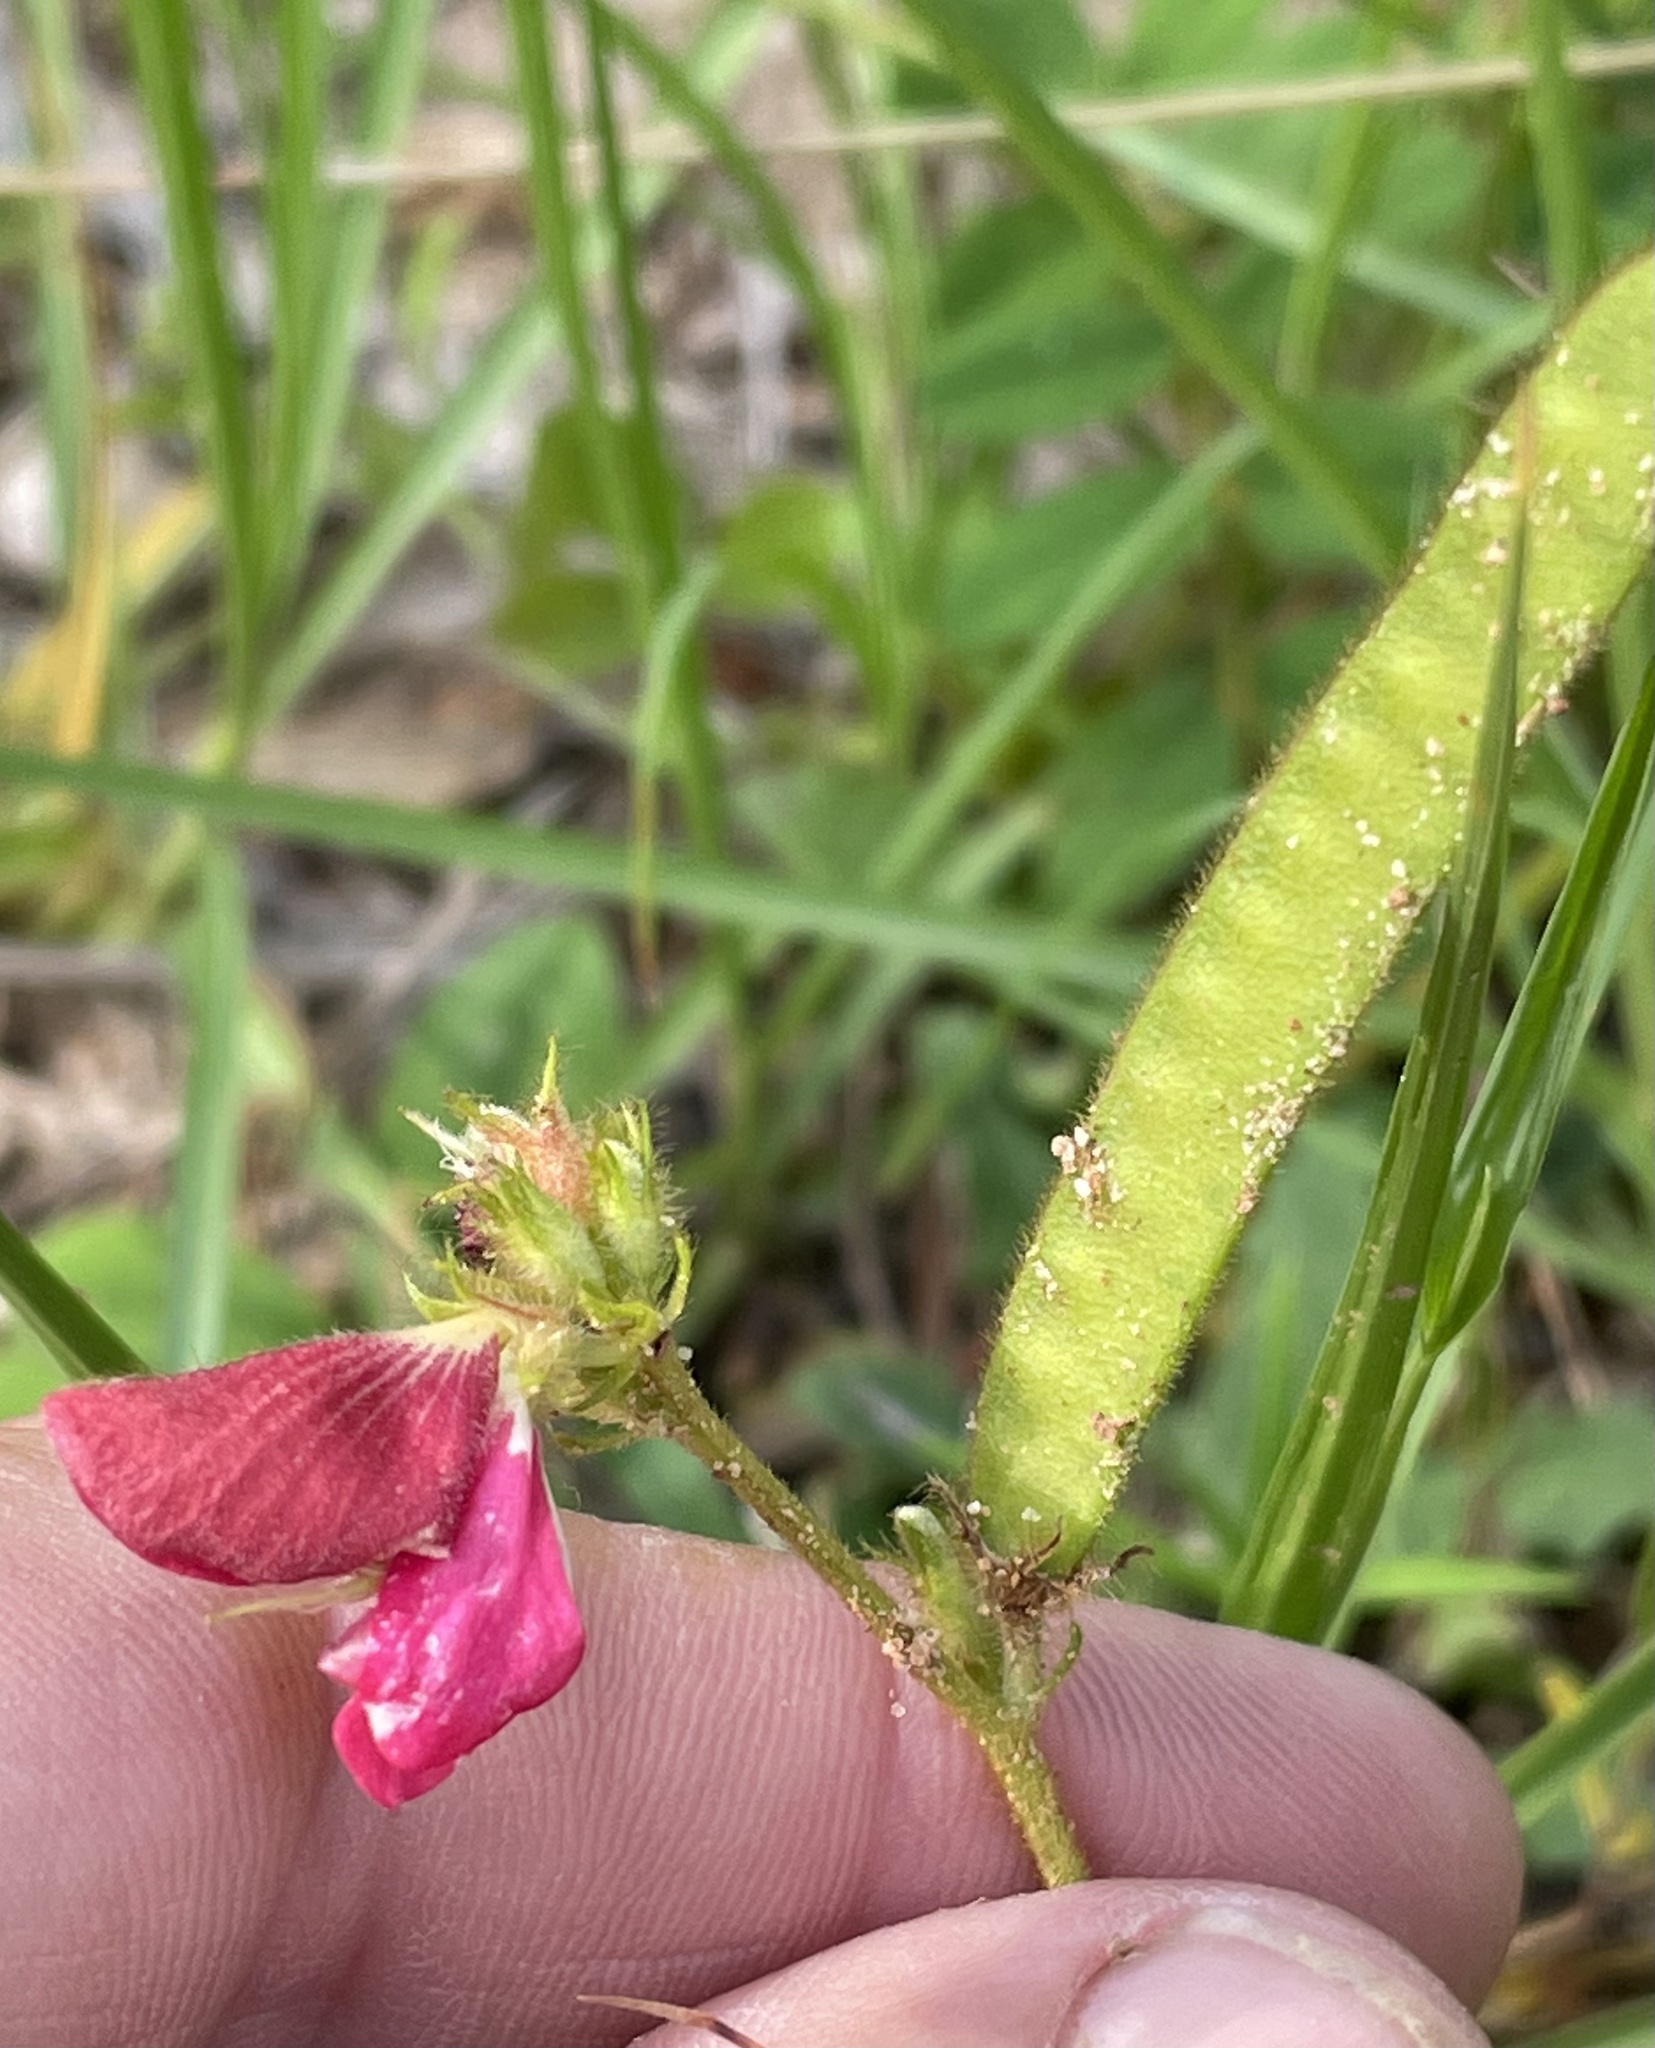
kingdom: Plantae
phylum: Tracheophyta
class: Magnoliopsida
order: Fabales
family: Fabaceae
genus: Tephrosia
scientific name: Tephrosia spicata
